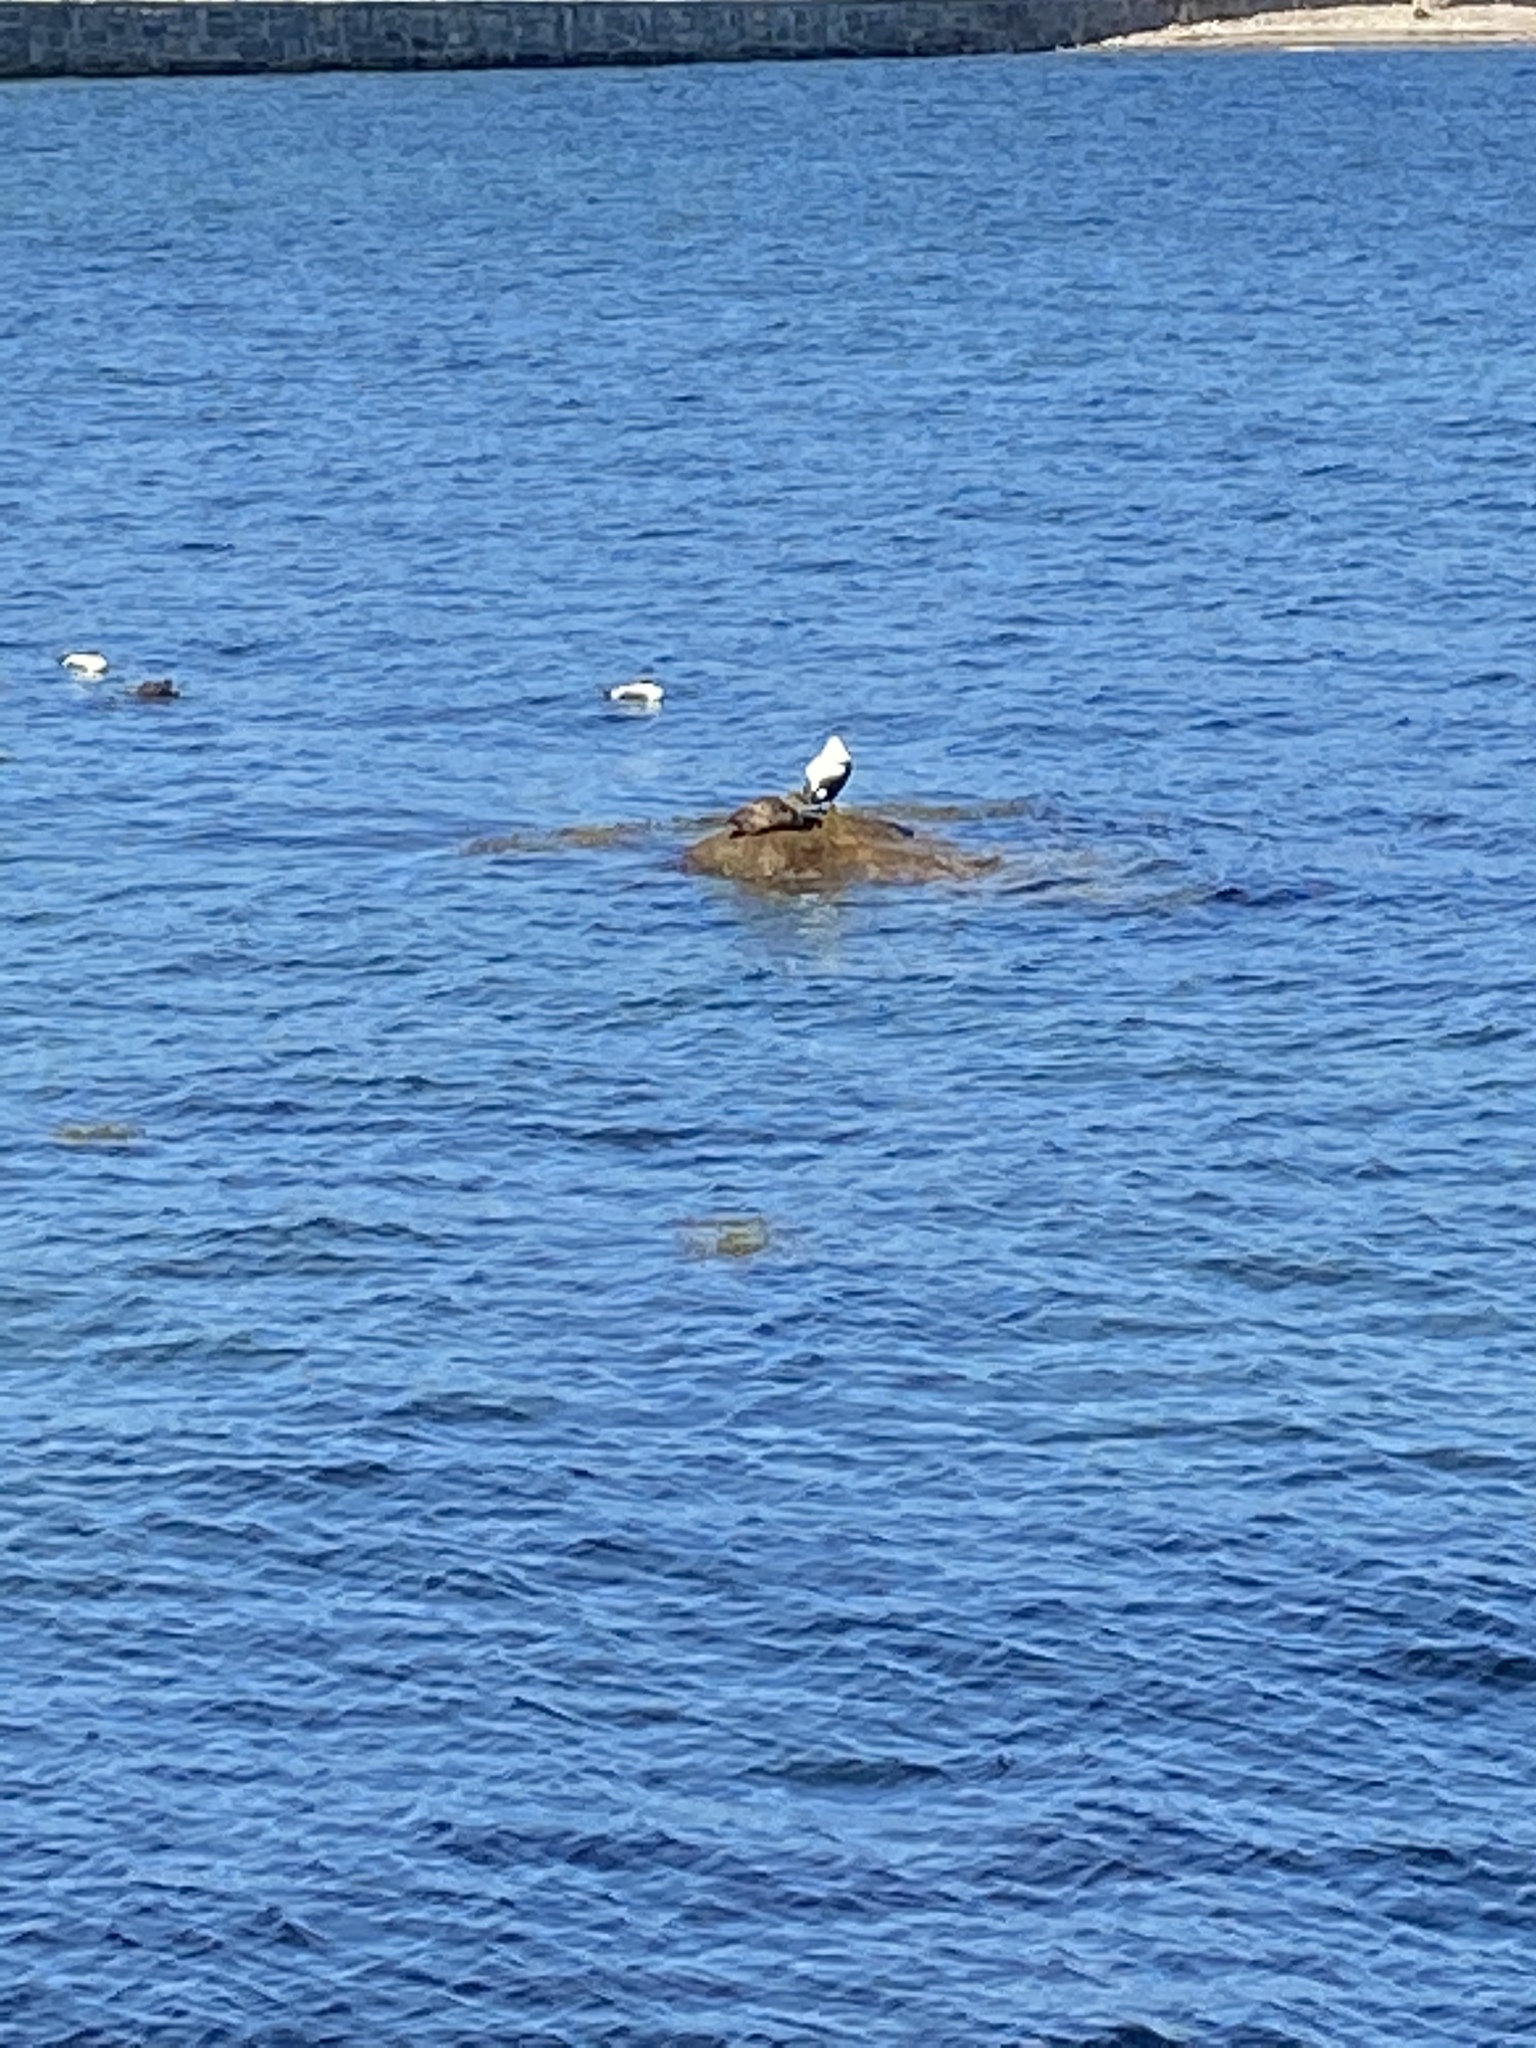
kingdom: Animalia
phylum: Chordata
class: Aves
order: Anseriformes
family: Anatidae
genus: Somateria
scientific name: Somateria mollissima
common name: Common eider
